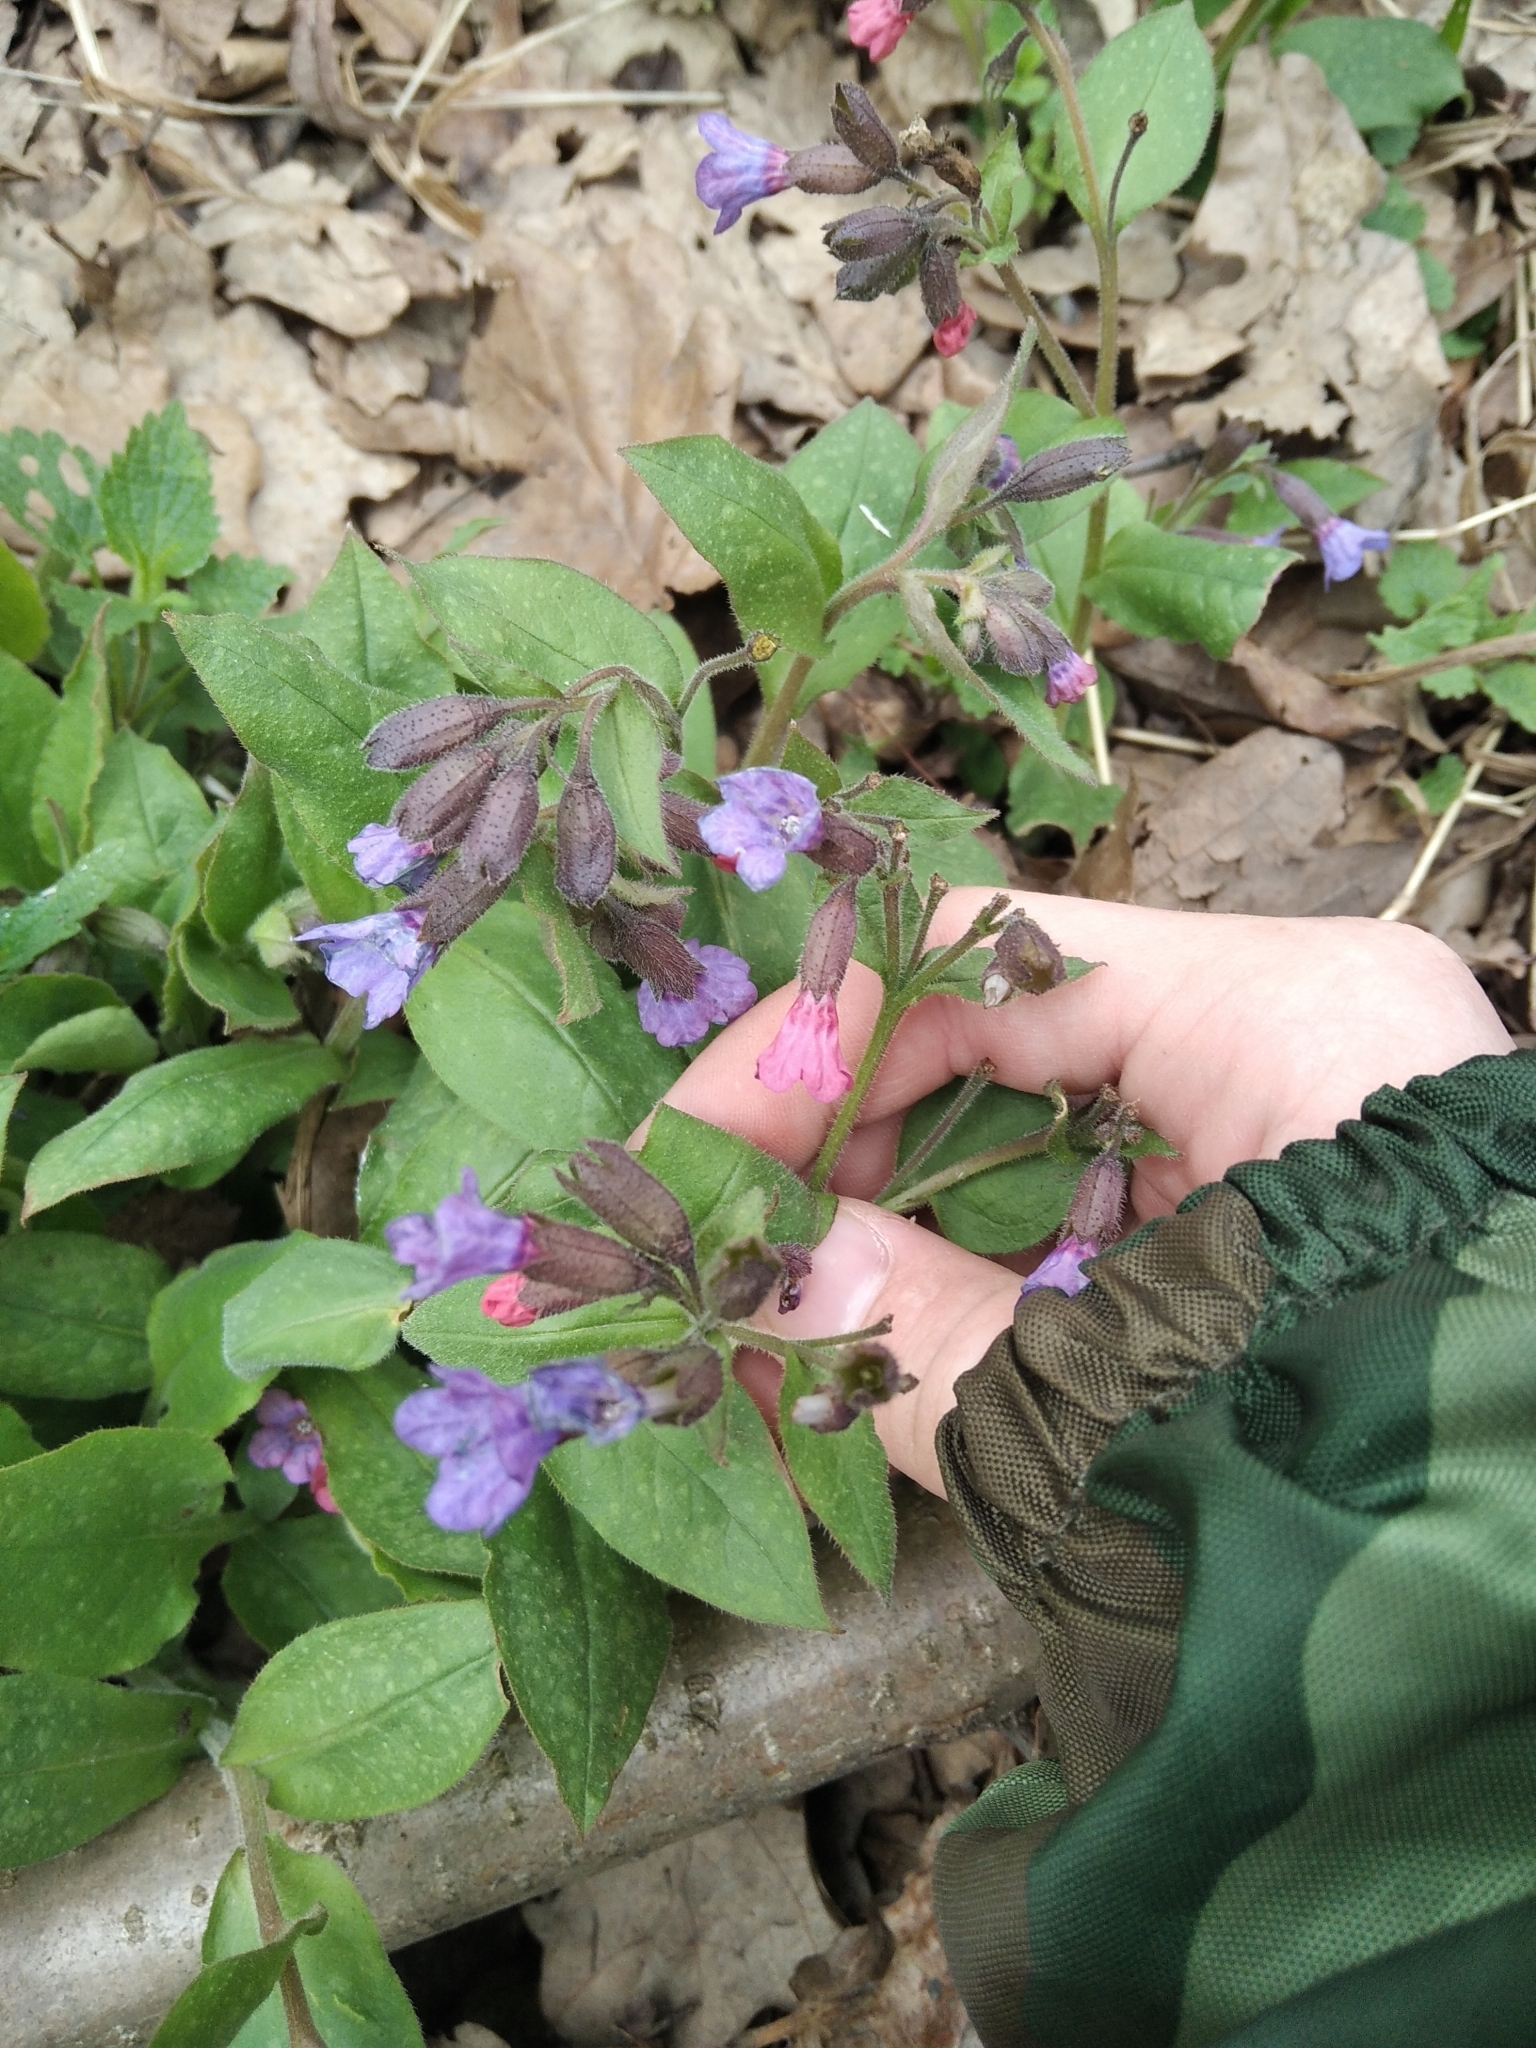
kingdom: Plantae
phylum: Tracheophyta
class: Magnoliopsida
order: Boraginales
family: Boraginaceae
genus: Pulmonaria
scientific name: Pulmonaria obscura
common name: Suffolk lungwort
